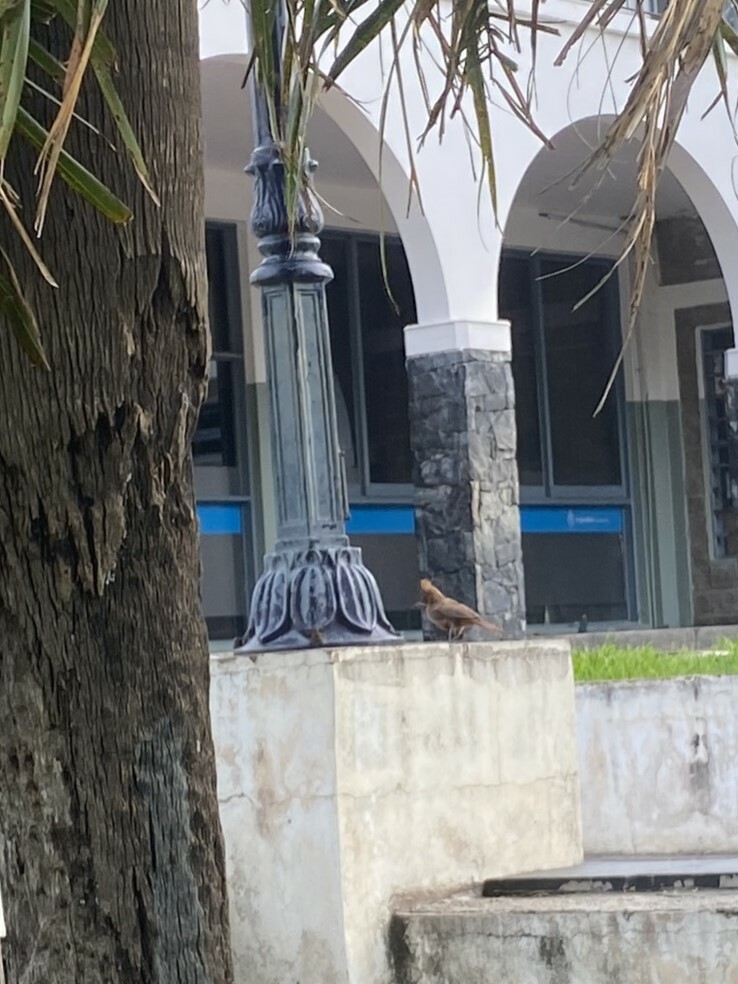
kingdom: Animalia
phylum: Chordata
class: Aves
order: Passeriformes
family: Furnariidae
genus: Pseudoseisura
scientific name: Pseudoseisura lophotes
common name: Brown cacholote
